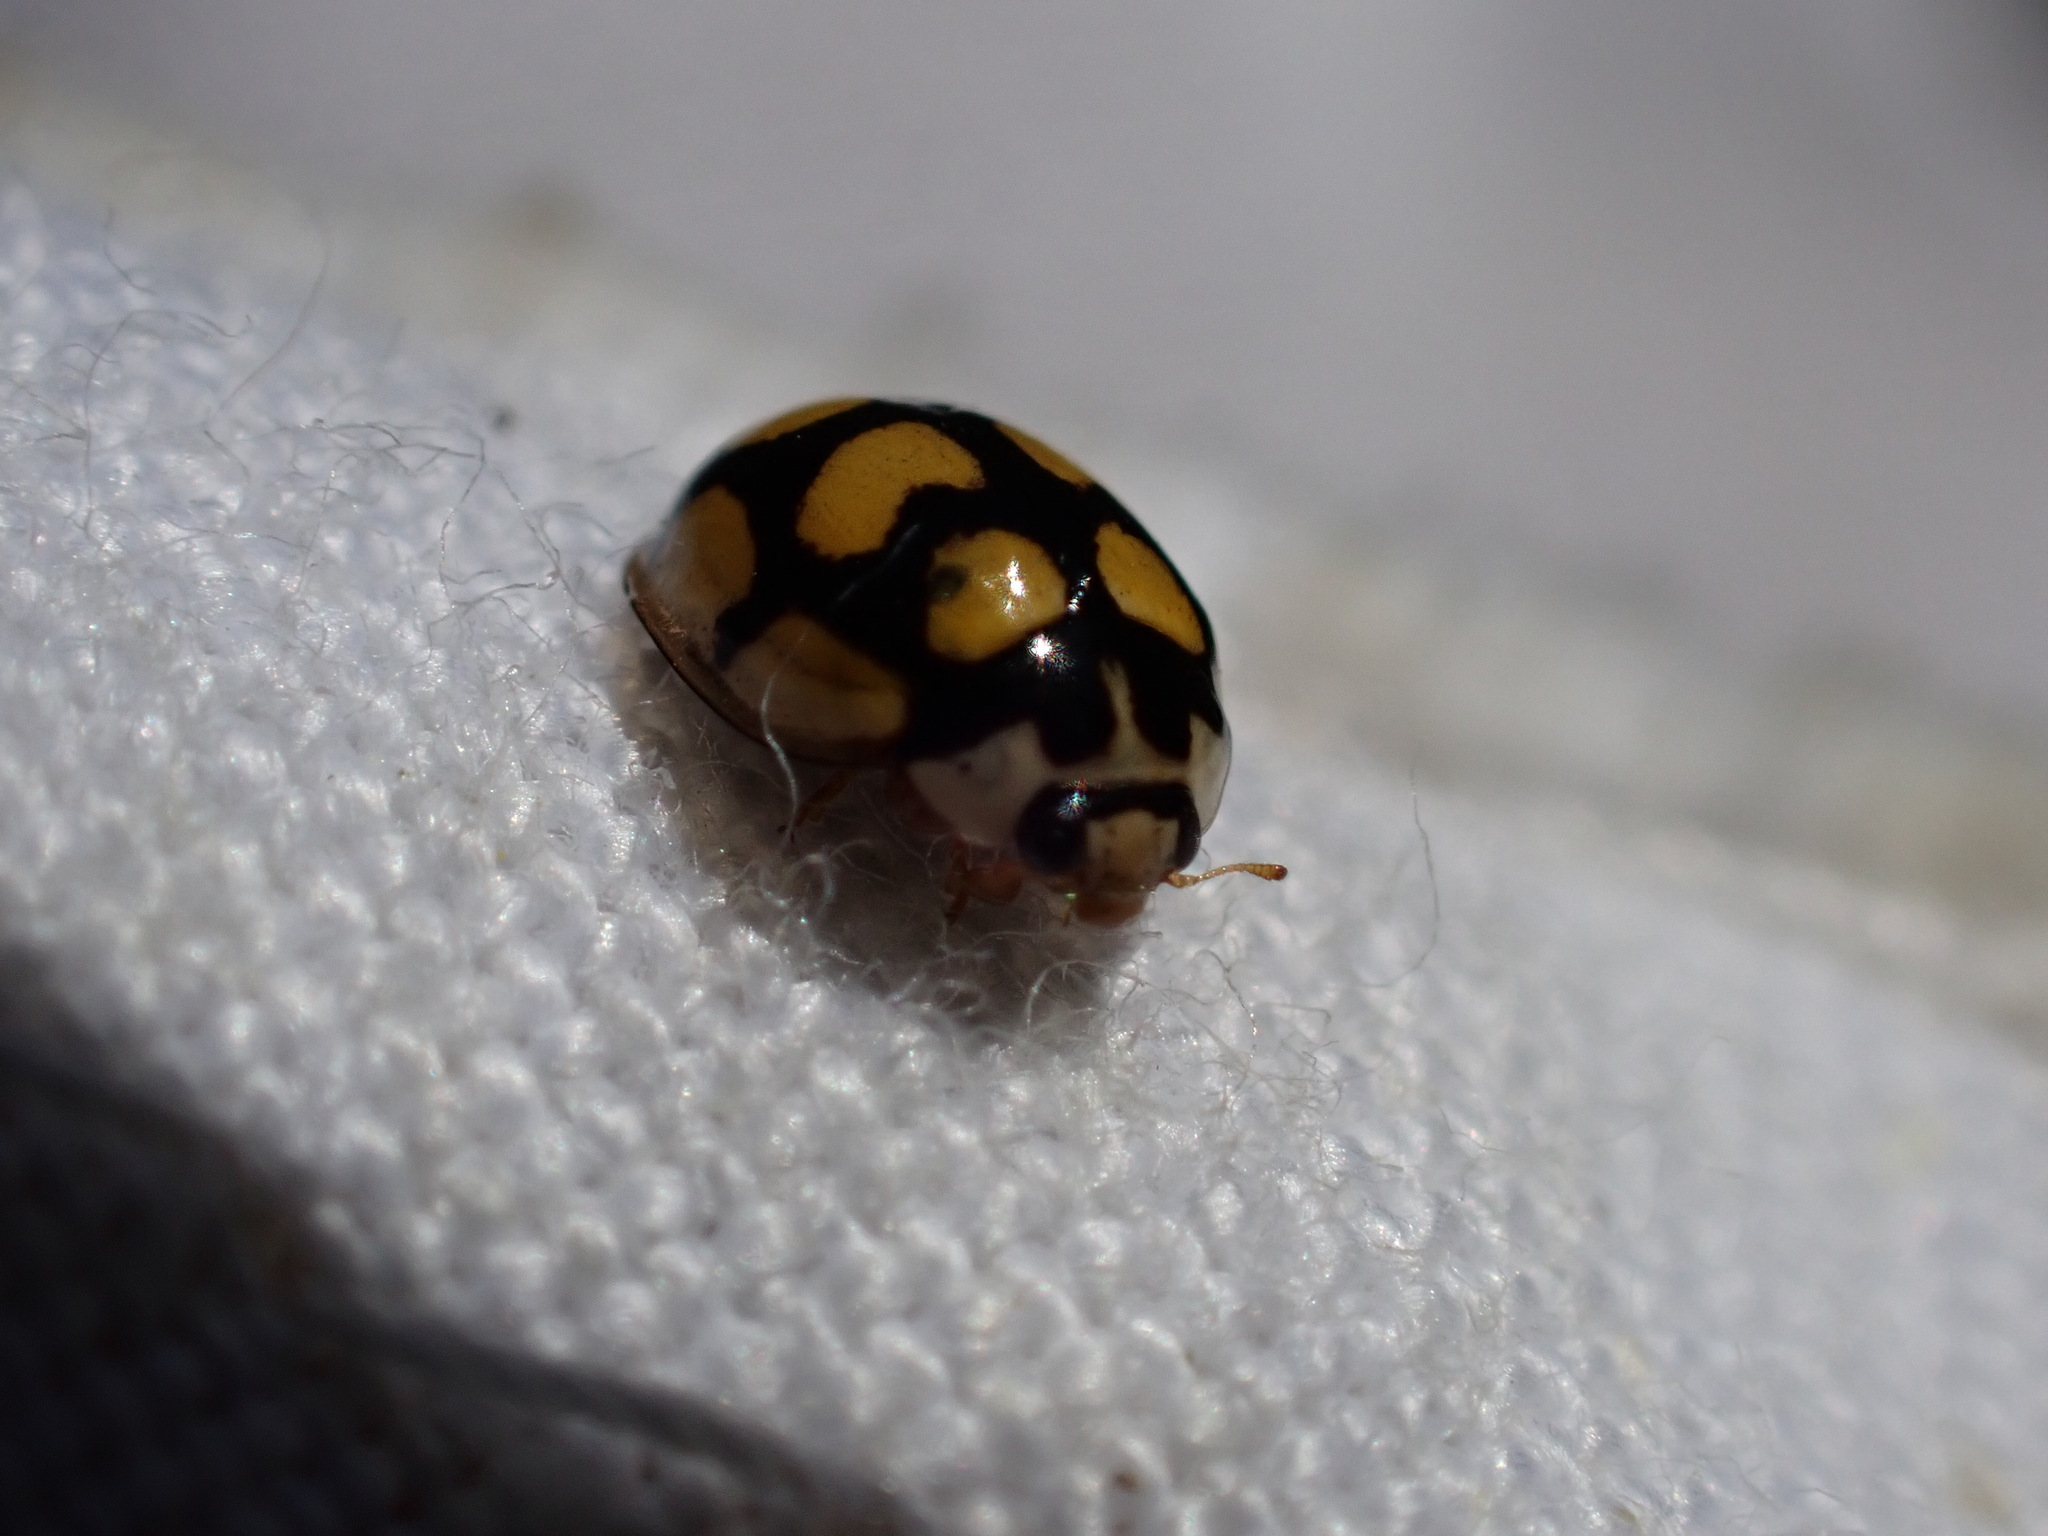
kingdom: Animalia
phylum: Arthropoda
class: Insecta
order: Coleoptera
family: Coccinellidae
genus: Oenopia
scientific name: Oenopia lyncea
